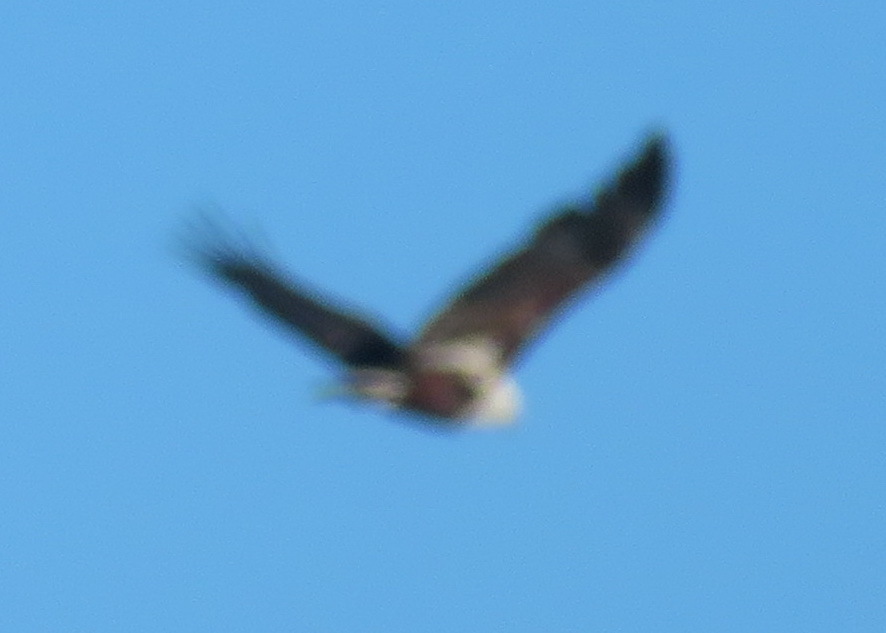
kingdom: Animalia
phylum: Chordata
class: Aves
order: Accipitriformes
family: Accipitridae
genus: Haliaeetus
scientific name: Haliaeetus vocifer
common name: African fish eagle
